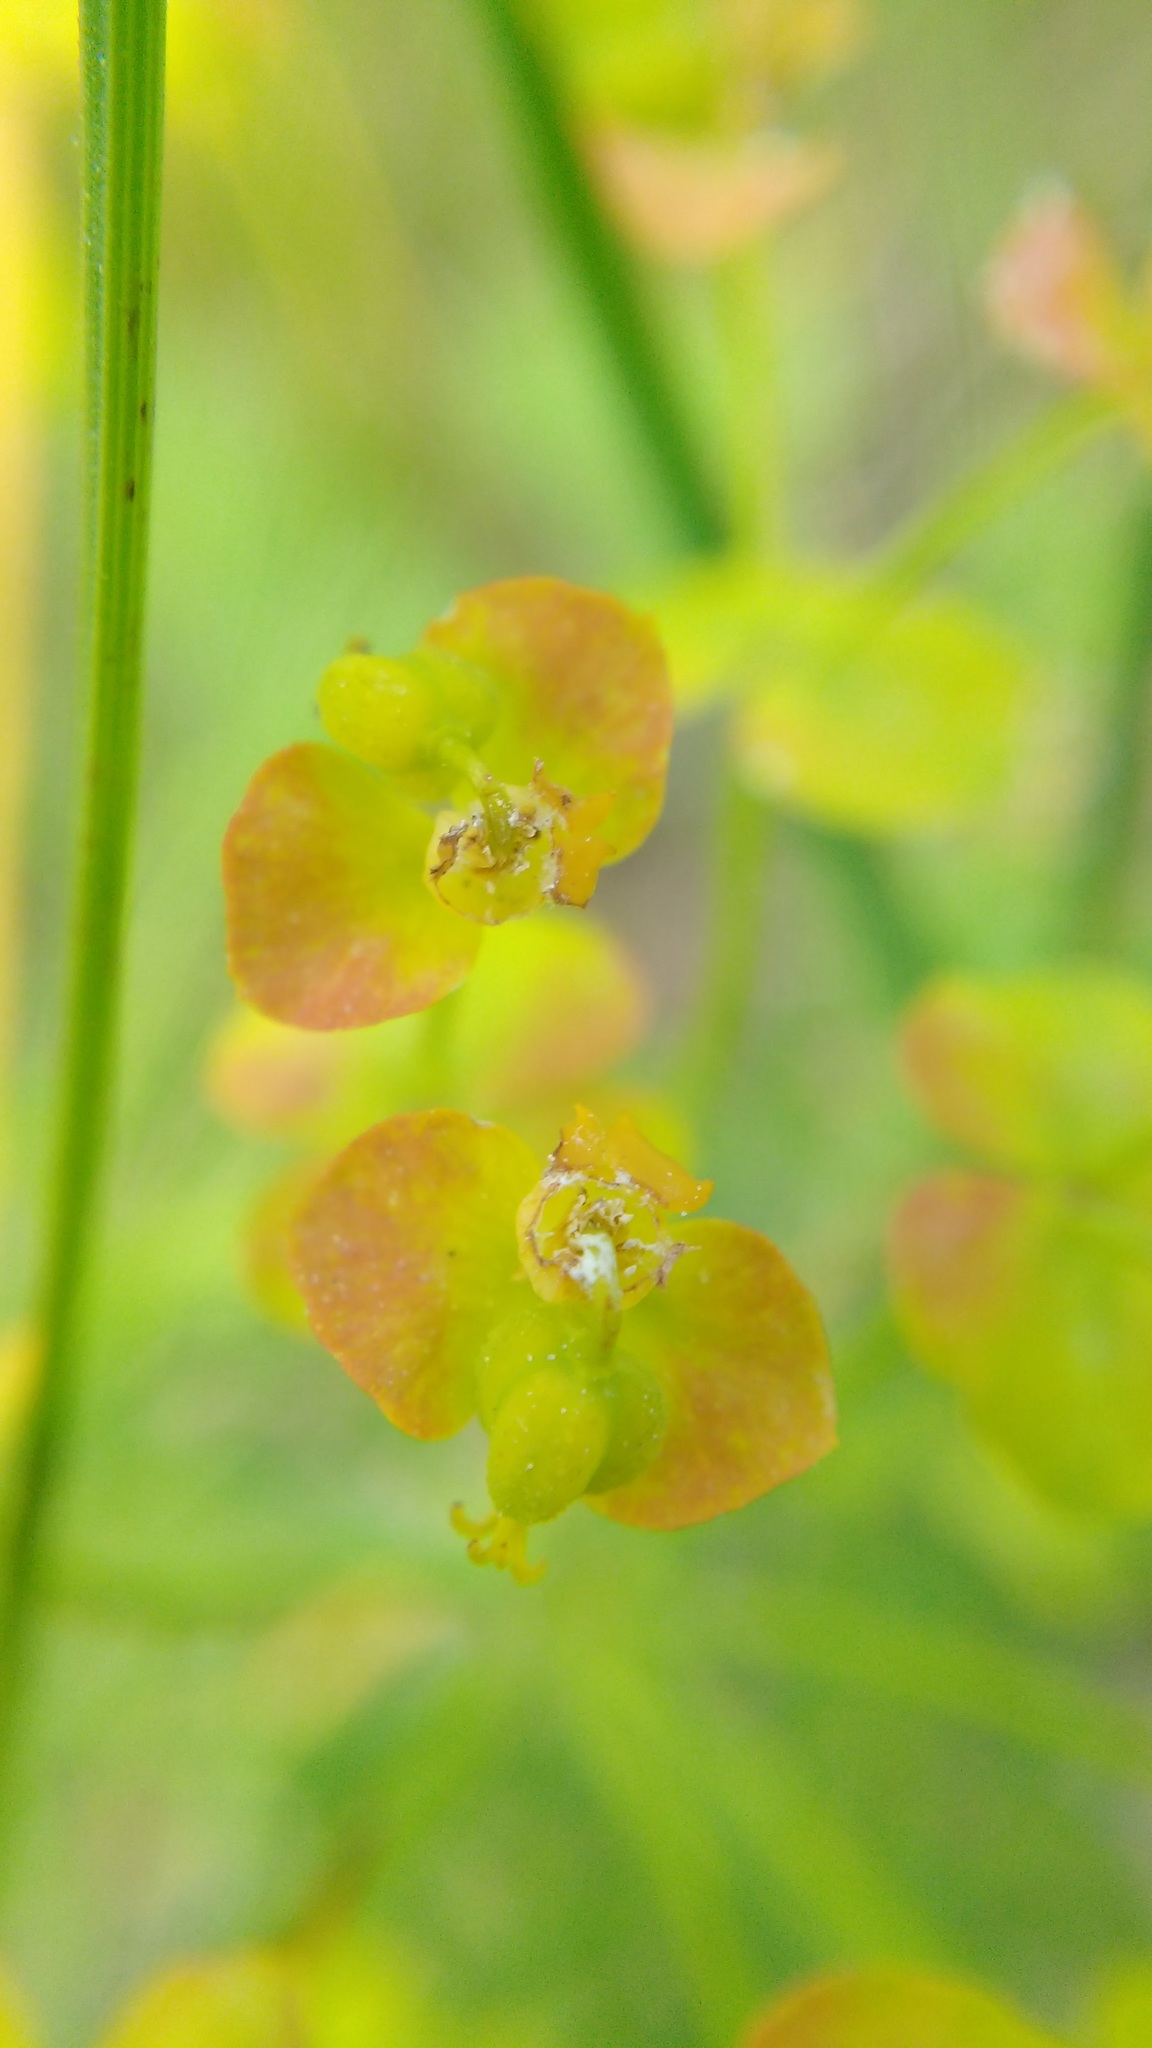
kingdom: Plantae
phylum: Tracheophyta
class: Magnoliopsida
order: Malpighiales
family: Euphorbiaceae
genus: Euphorbia
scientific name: Euphorbia cyparissias
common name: Cypress spurge
